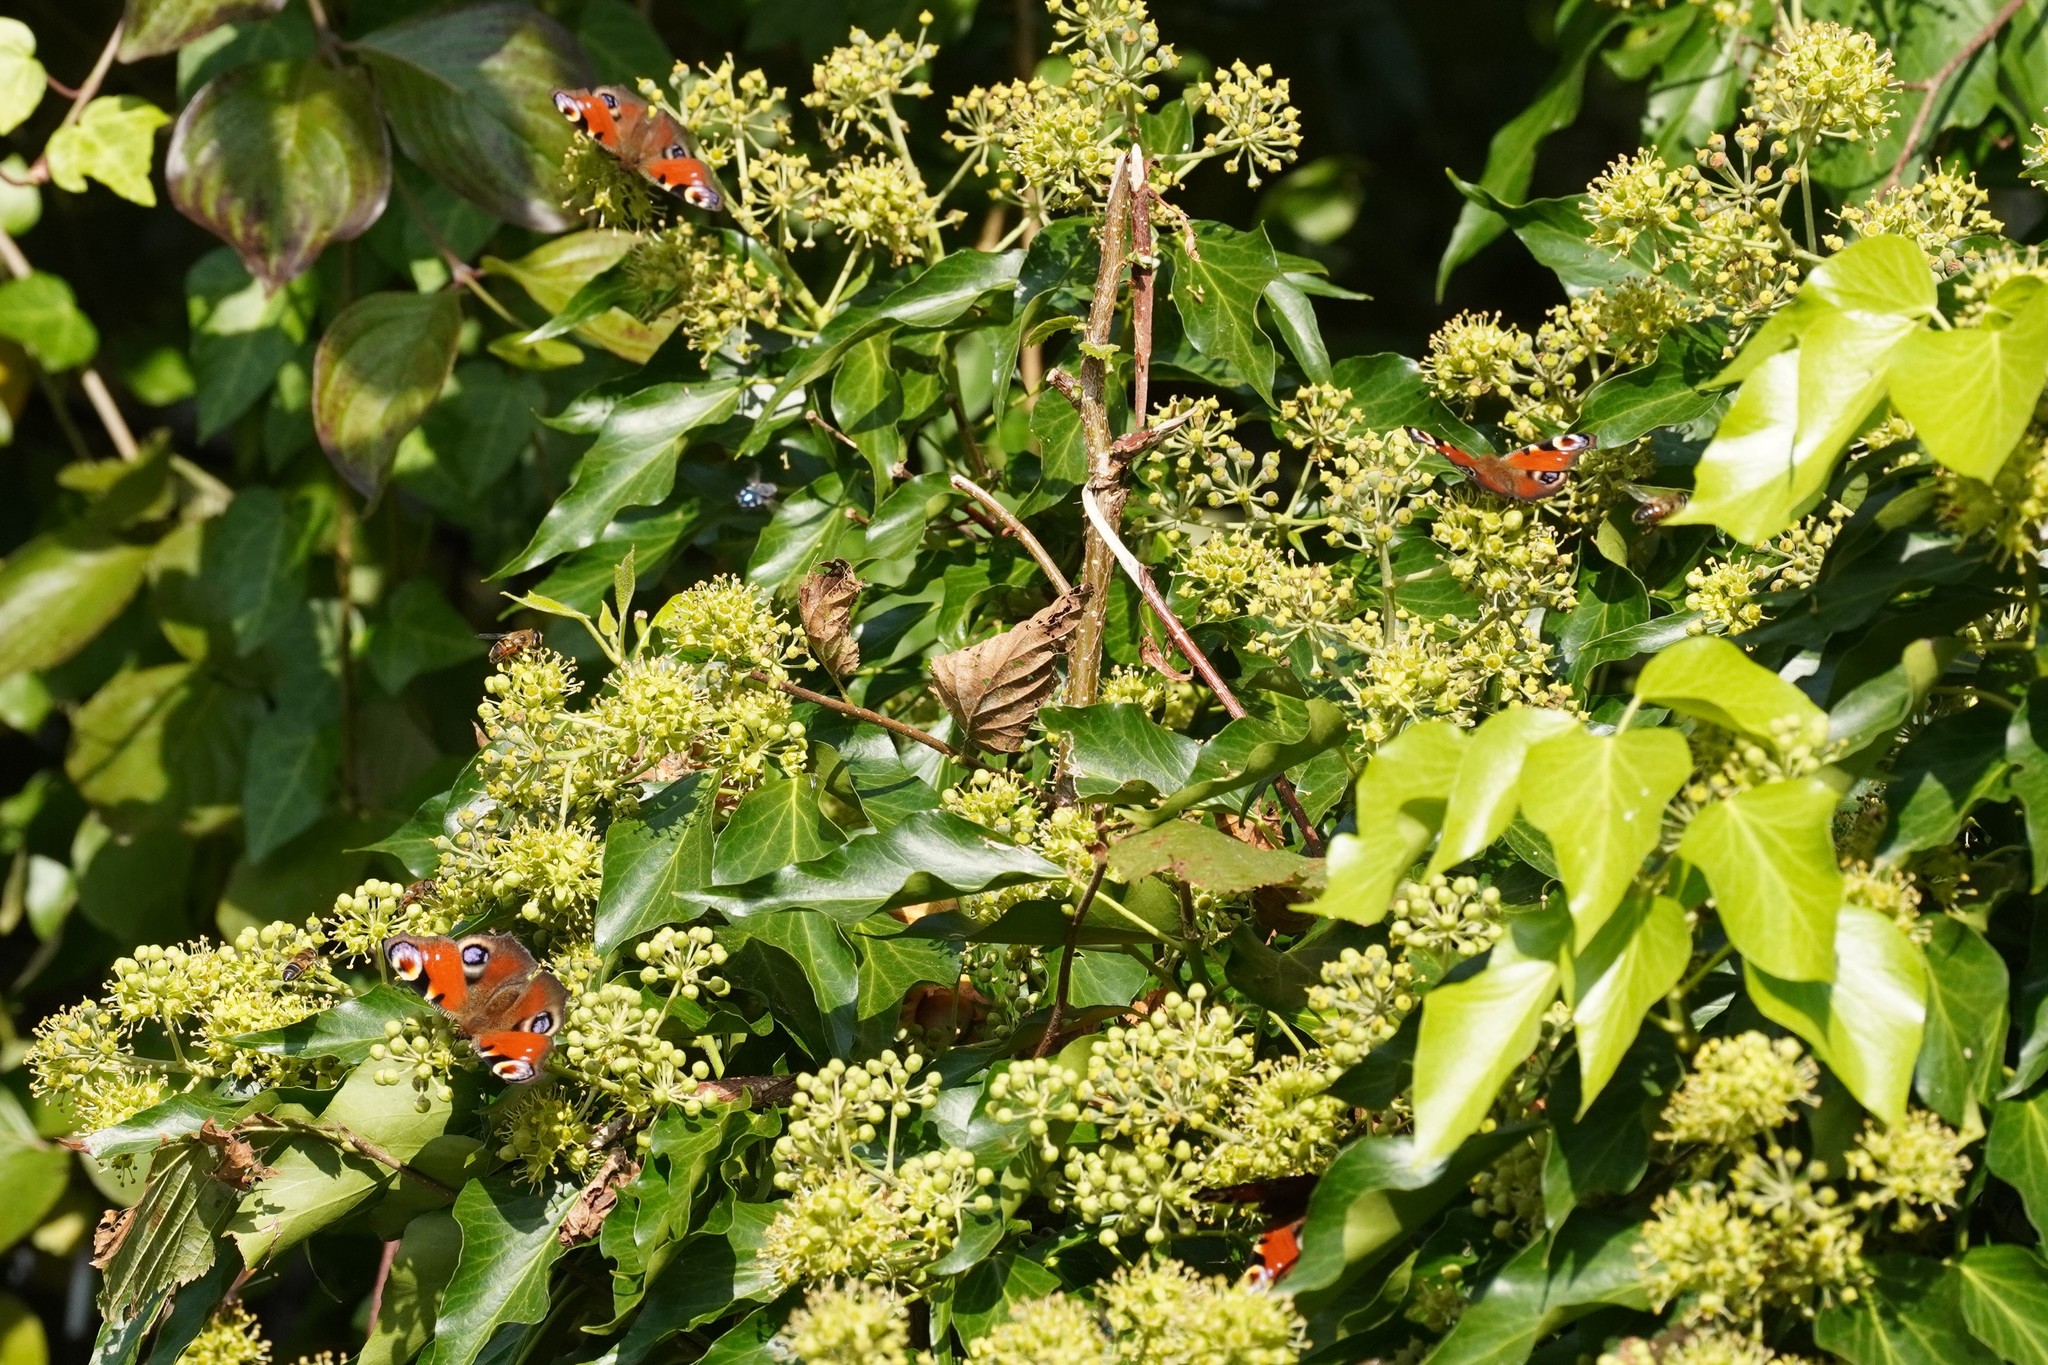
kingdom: Animalia
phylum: Arthropoda
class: Insecta
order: Lepidoptera
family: Nymphalidae
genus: Aglais
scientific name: Aglais io
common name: Peacock
